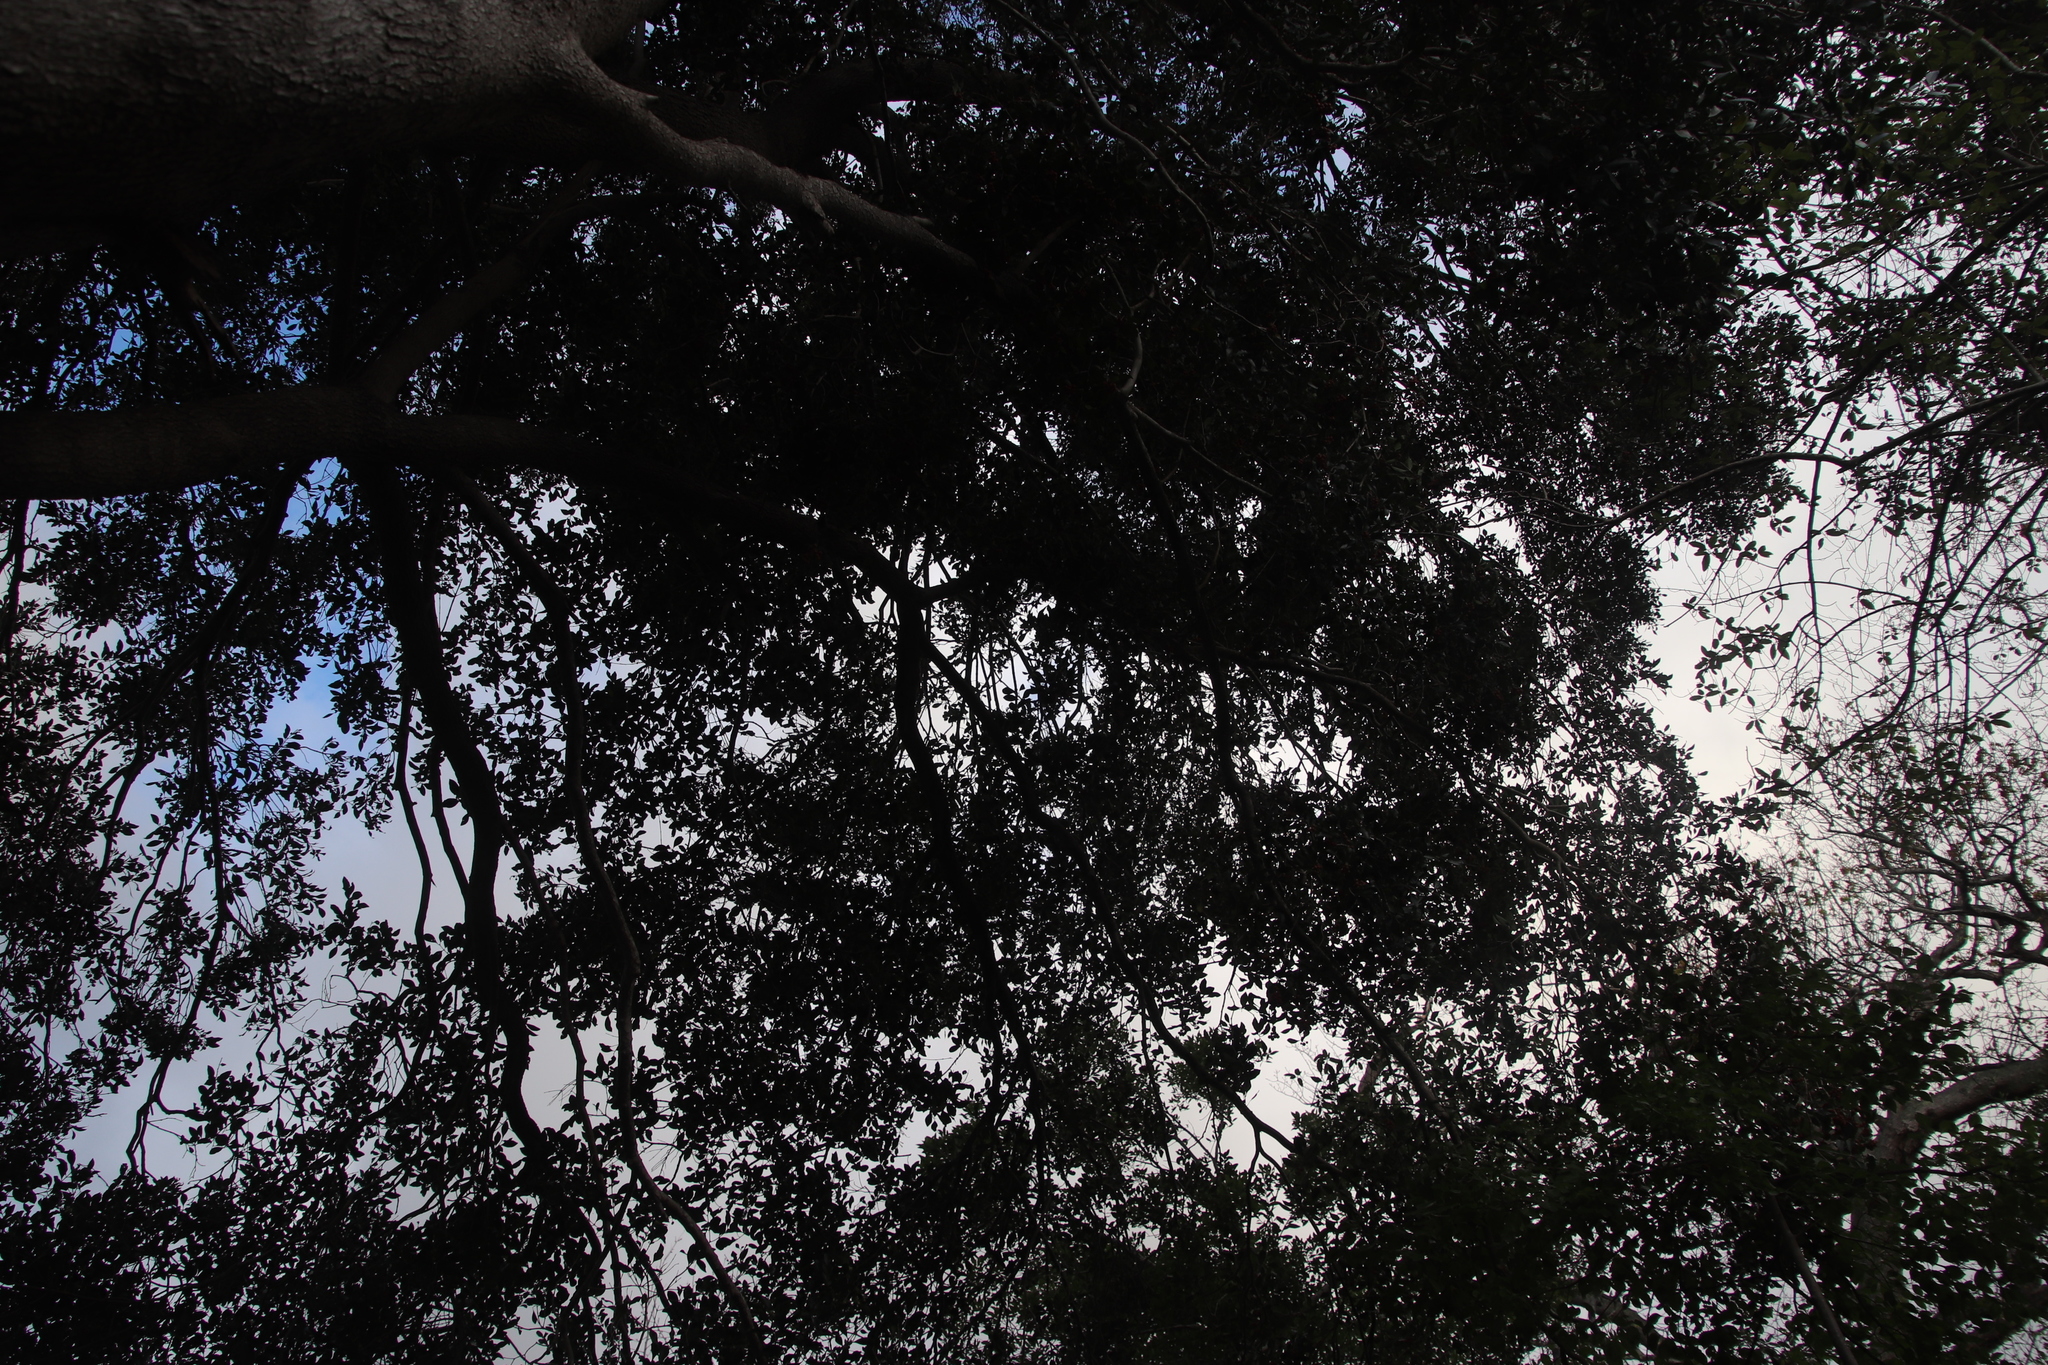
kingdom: Plantae
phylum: Tracheophyta
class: Magnoliopsida
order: Myrtales
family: Penaeaceae
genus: Olinia
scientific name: Olinia ventosa
